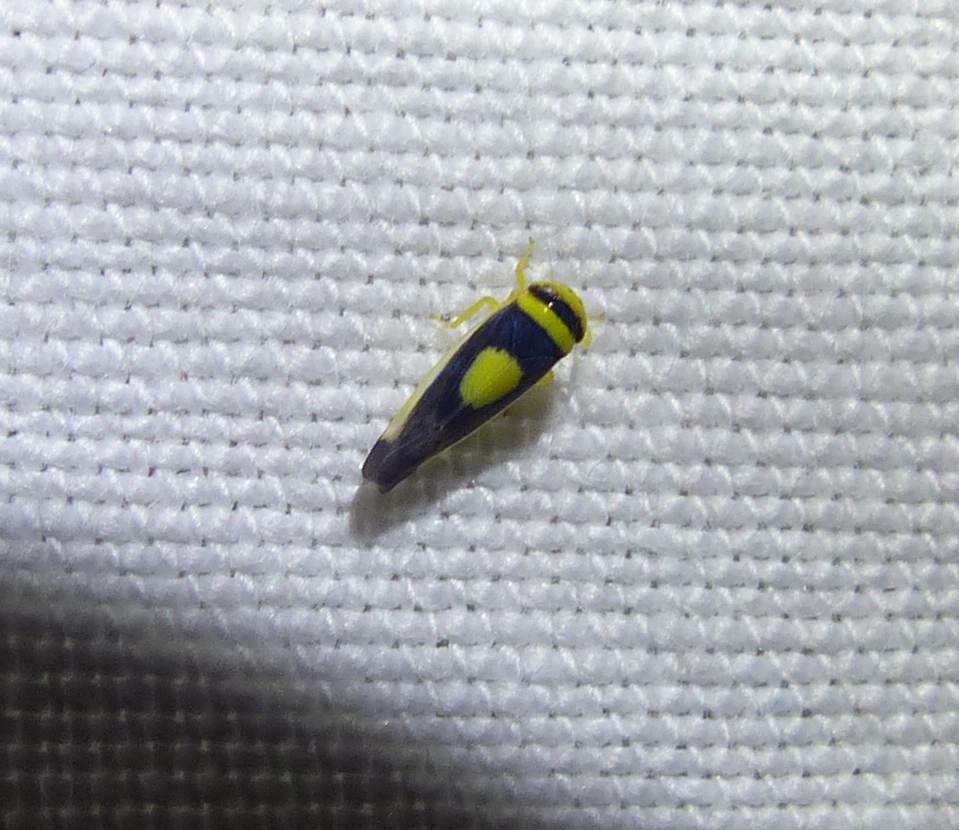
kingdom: Animalia
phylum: Arthropoda
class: Insecta
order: Hemiptera
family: Cicadellidae
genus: Colladonus
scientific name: Colladonus clitellarius
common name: The saddleback leafhopper
